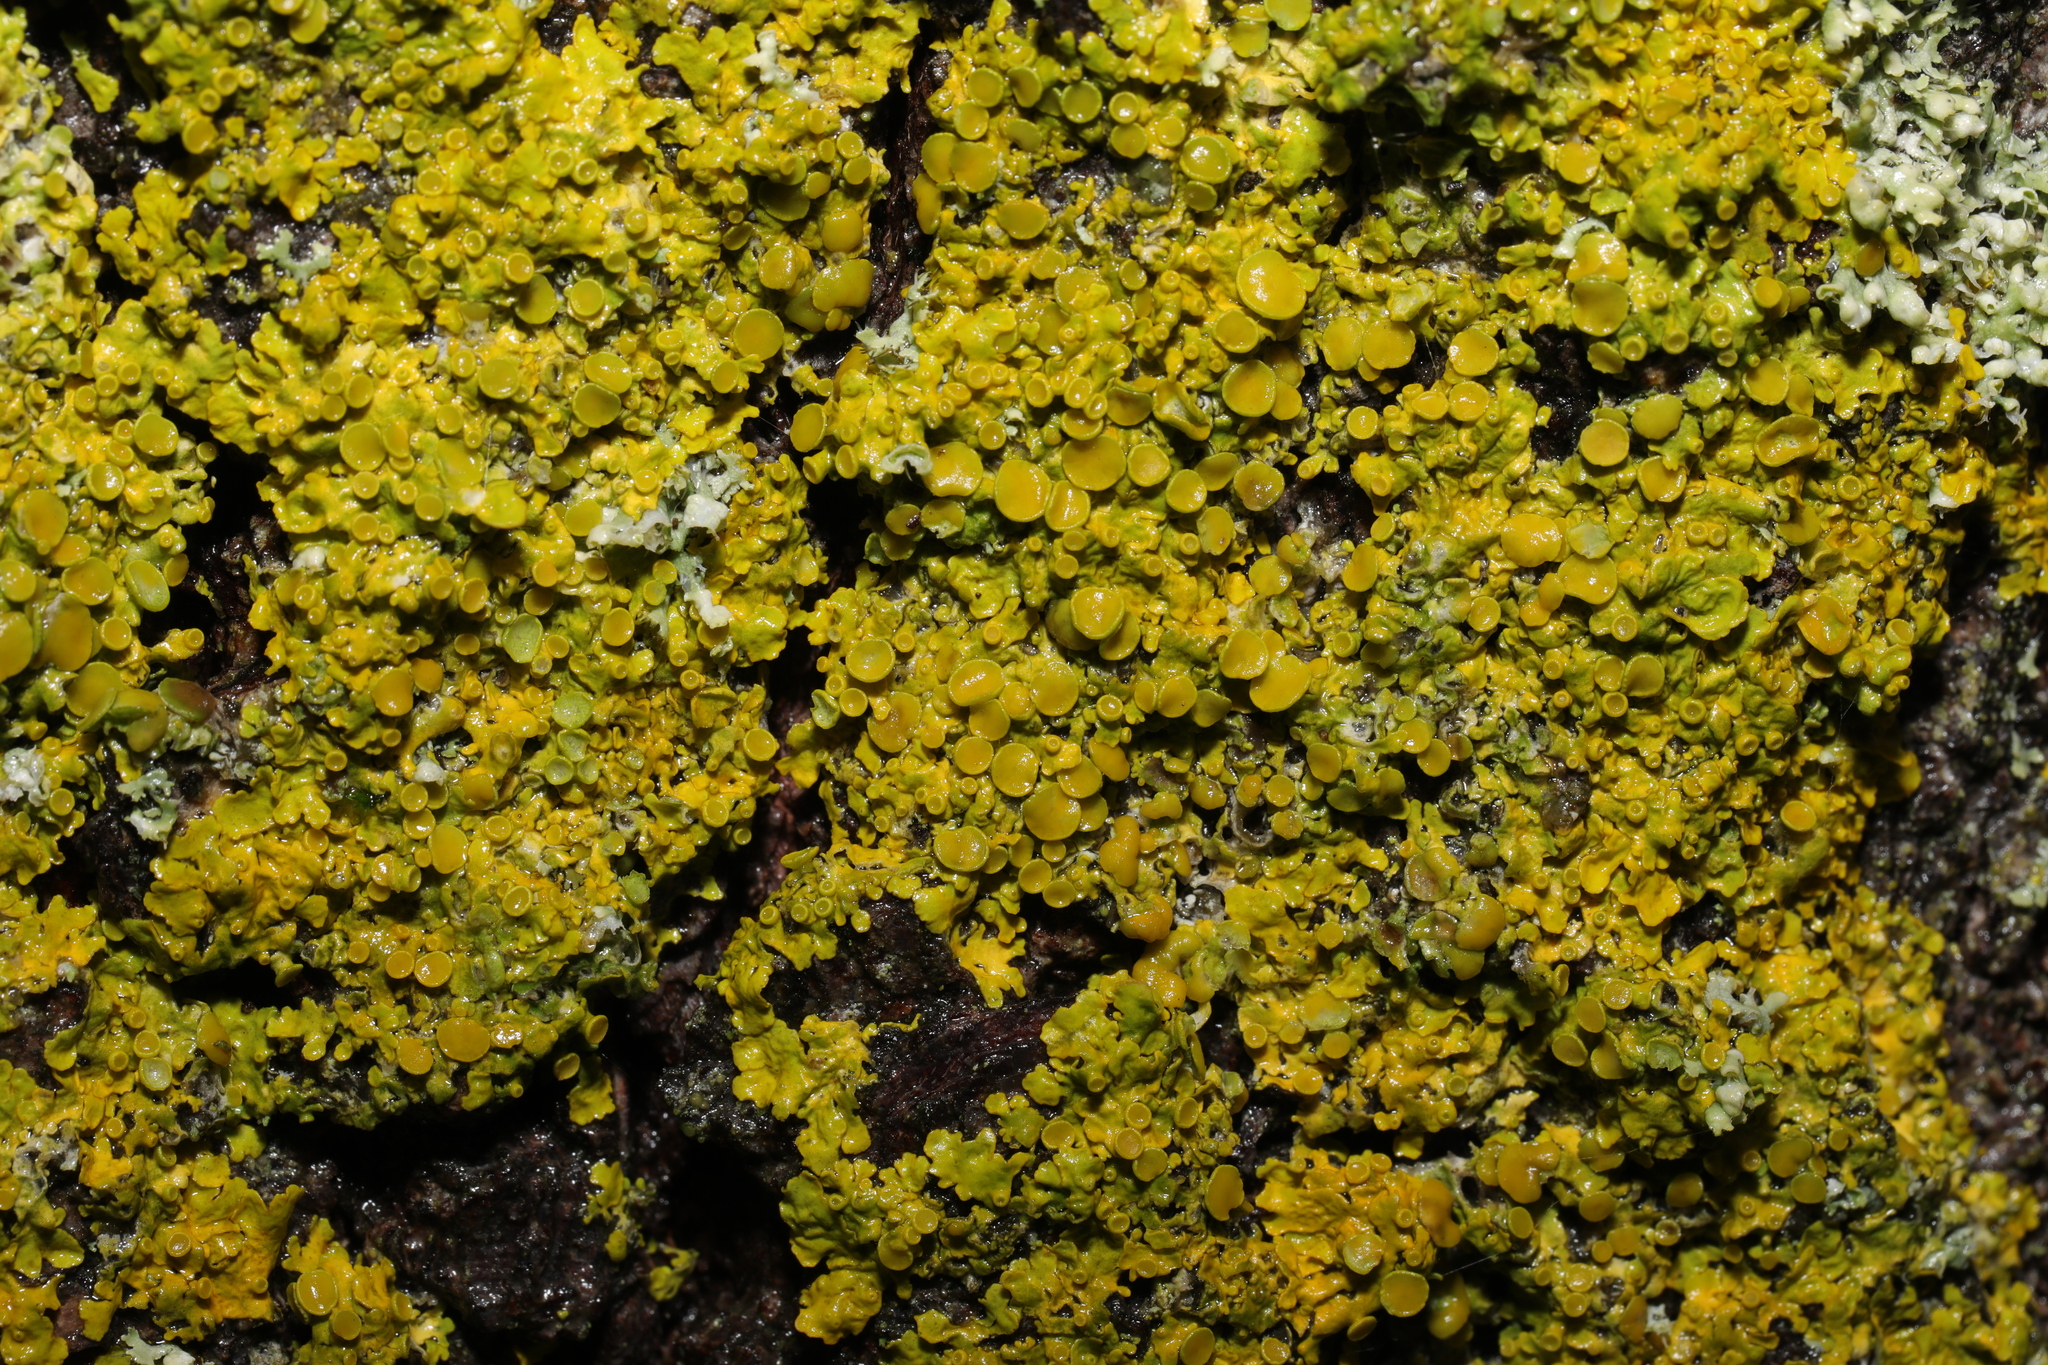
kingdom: Fungi
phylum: Ascomycota
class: Lecanoromycetes
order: Teloschistales
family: Teloschistaceae
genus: Xanthoria
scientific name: Xanthoria parietina
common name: Common orange lichen
